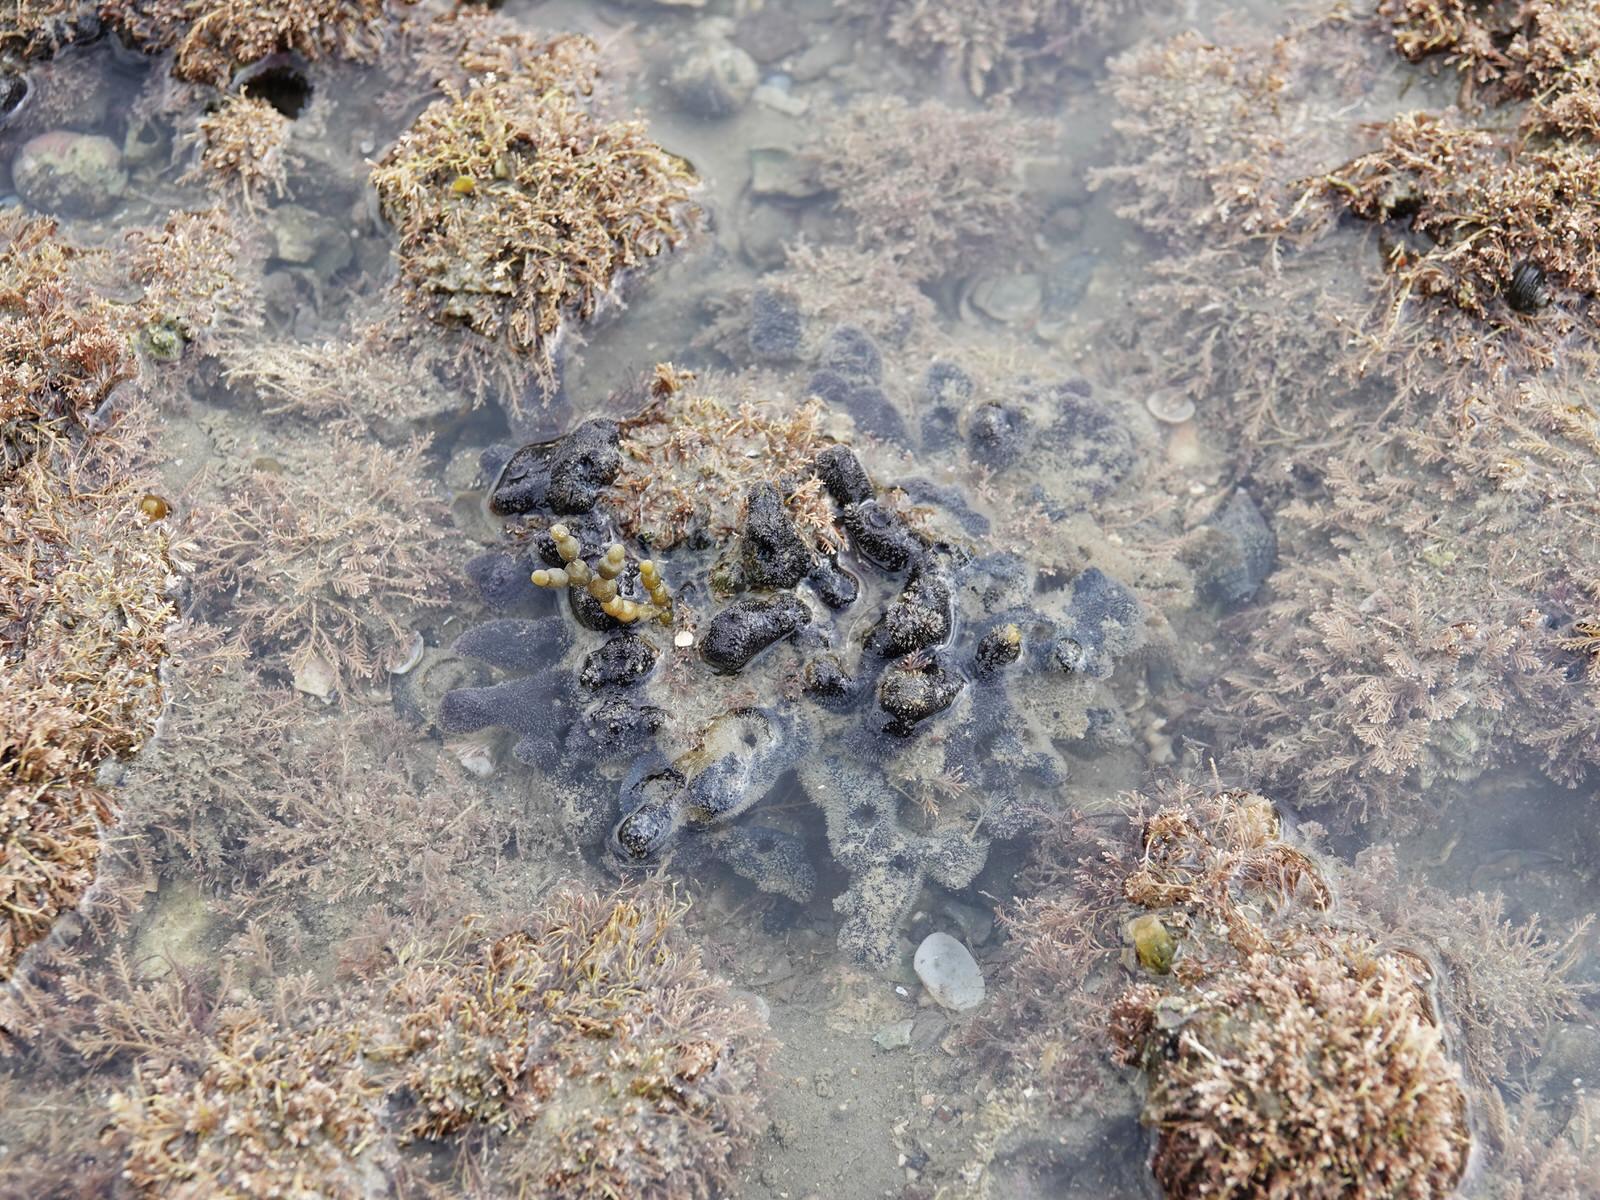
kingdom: Animalia
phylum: Porifera
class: Demospongiae
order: Axinellida
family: Raspailiidae
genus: Raspailia
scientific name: Raspailia arbuscula
